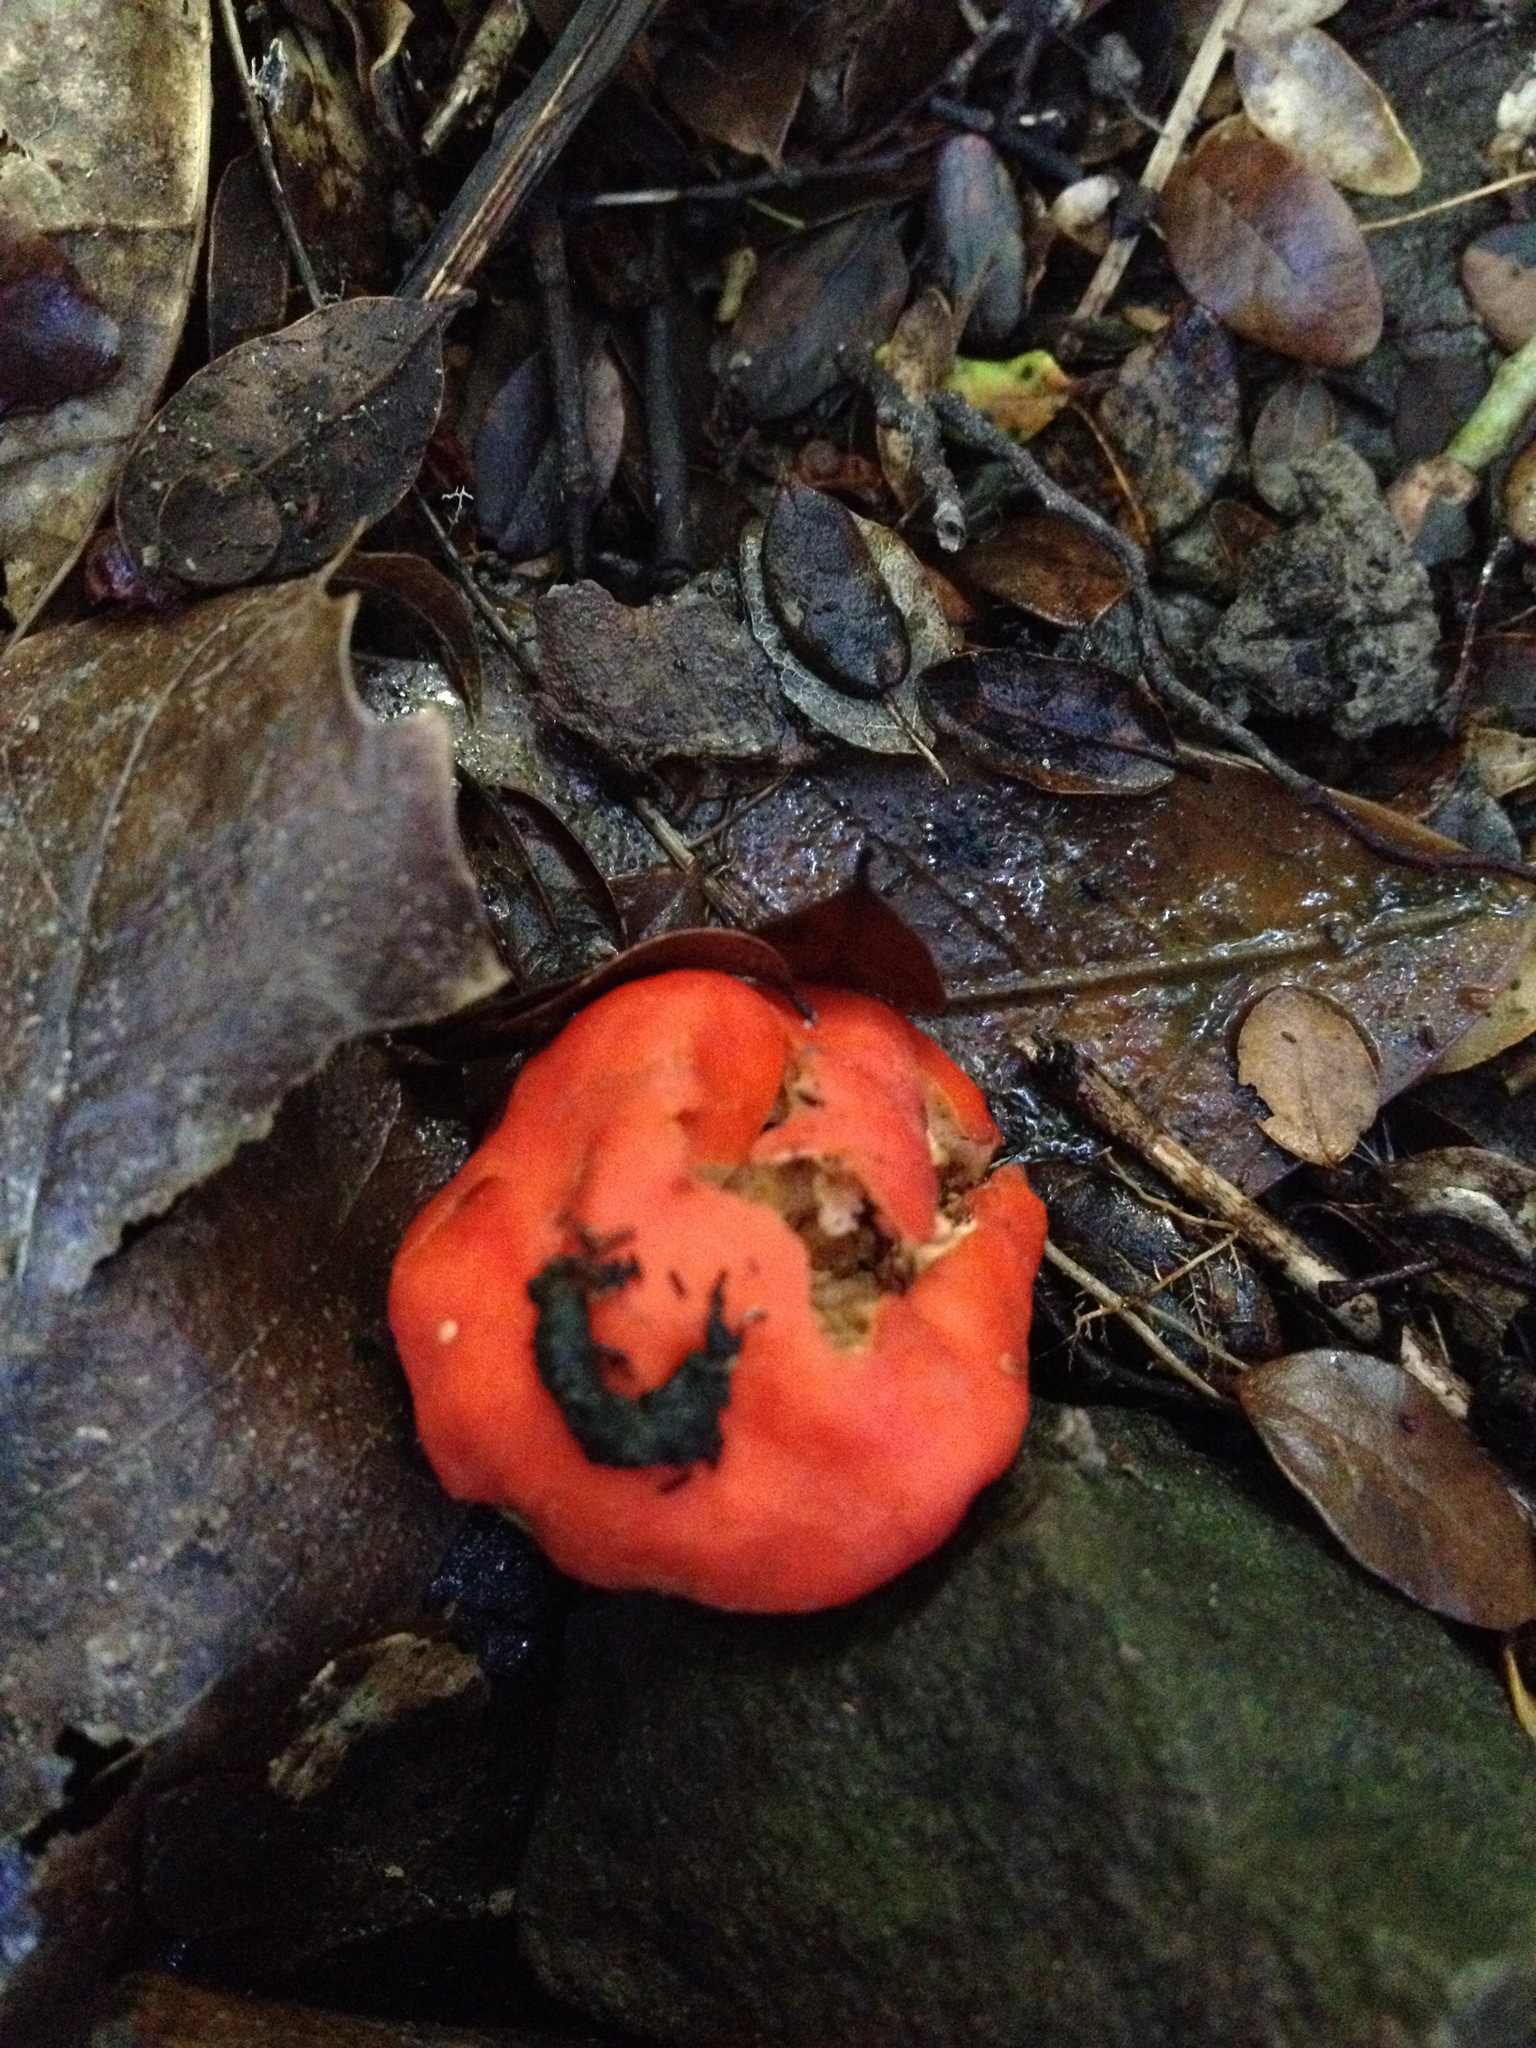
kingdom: Fungi
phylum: Ascomycota
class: Pezizomycetes
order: Pezizales
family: Pyronemataceae
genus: Paurocotylis
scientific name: Paurocotylis pila
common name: Scarlet berry truffle
